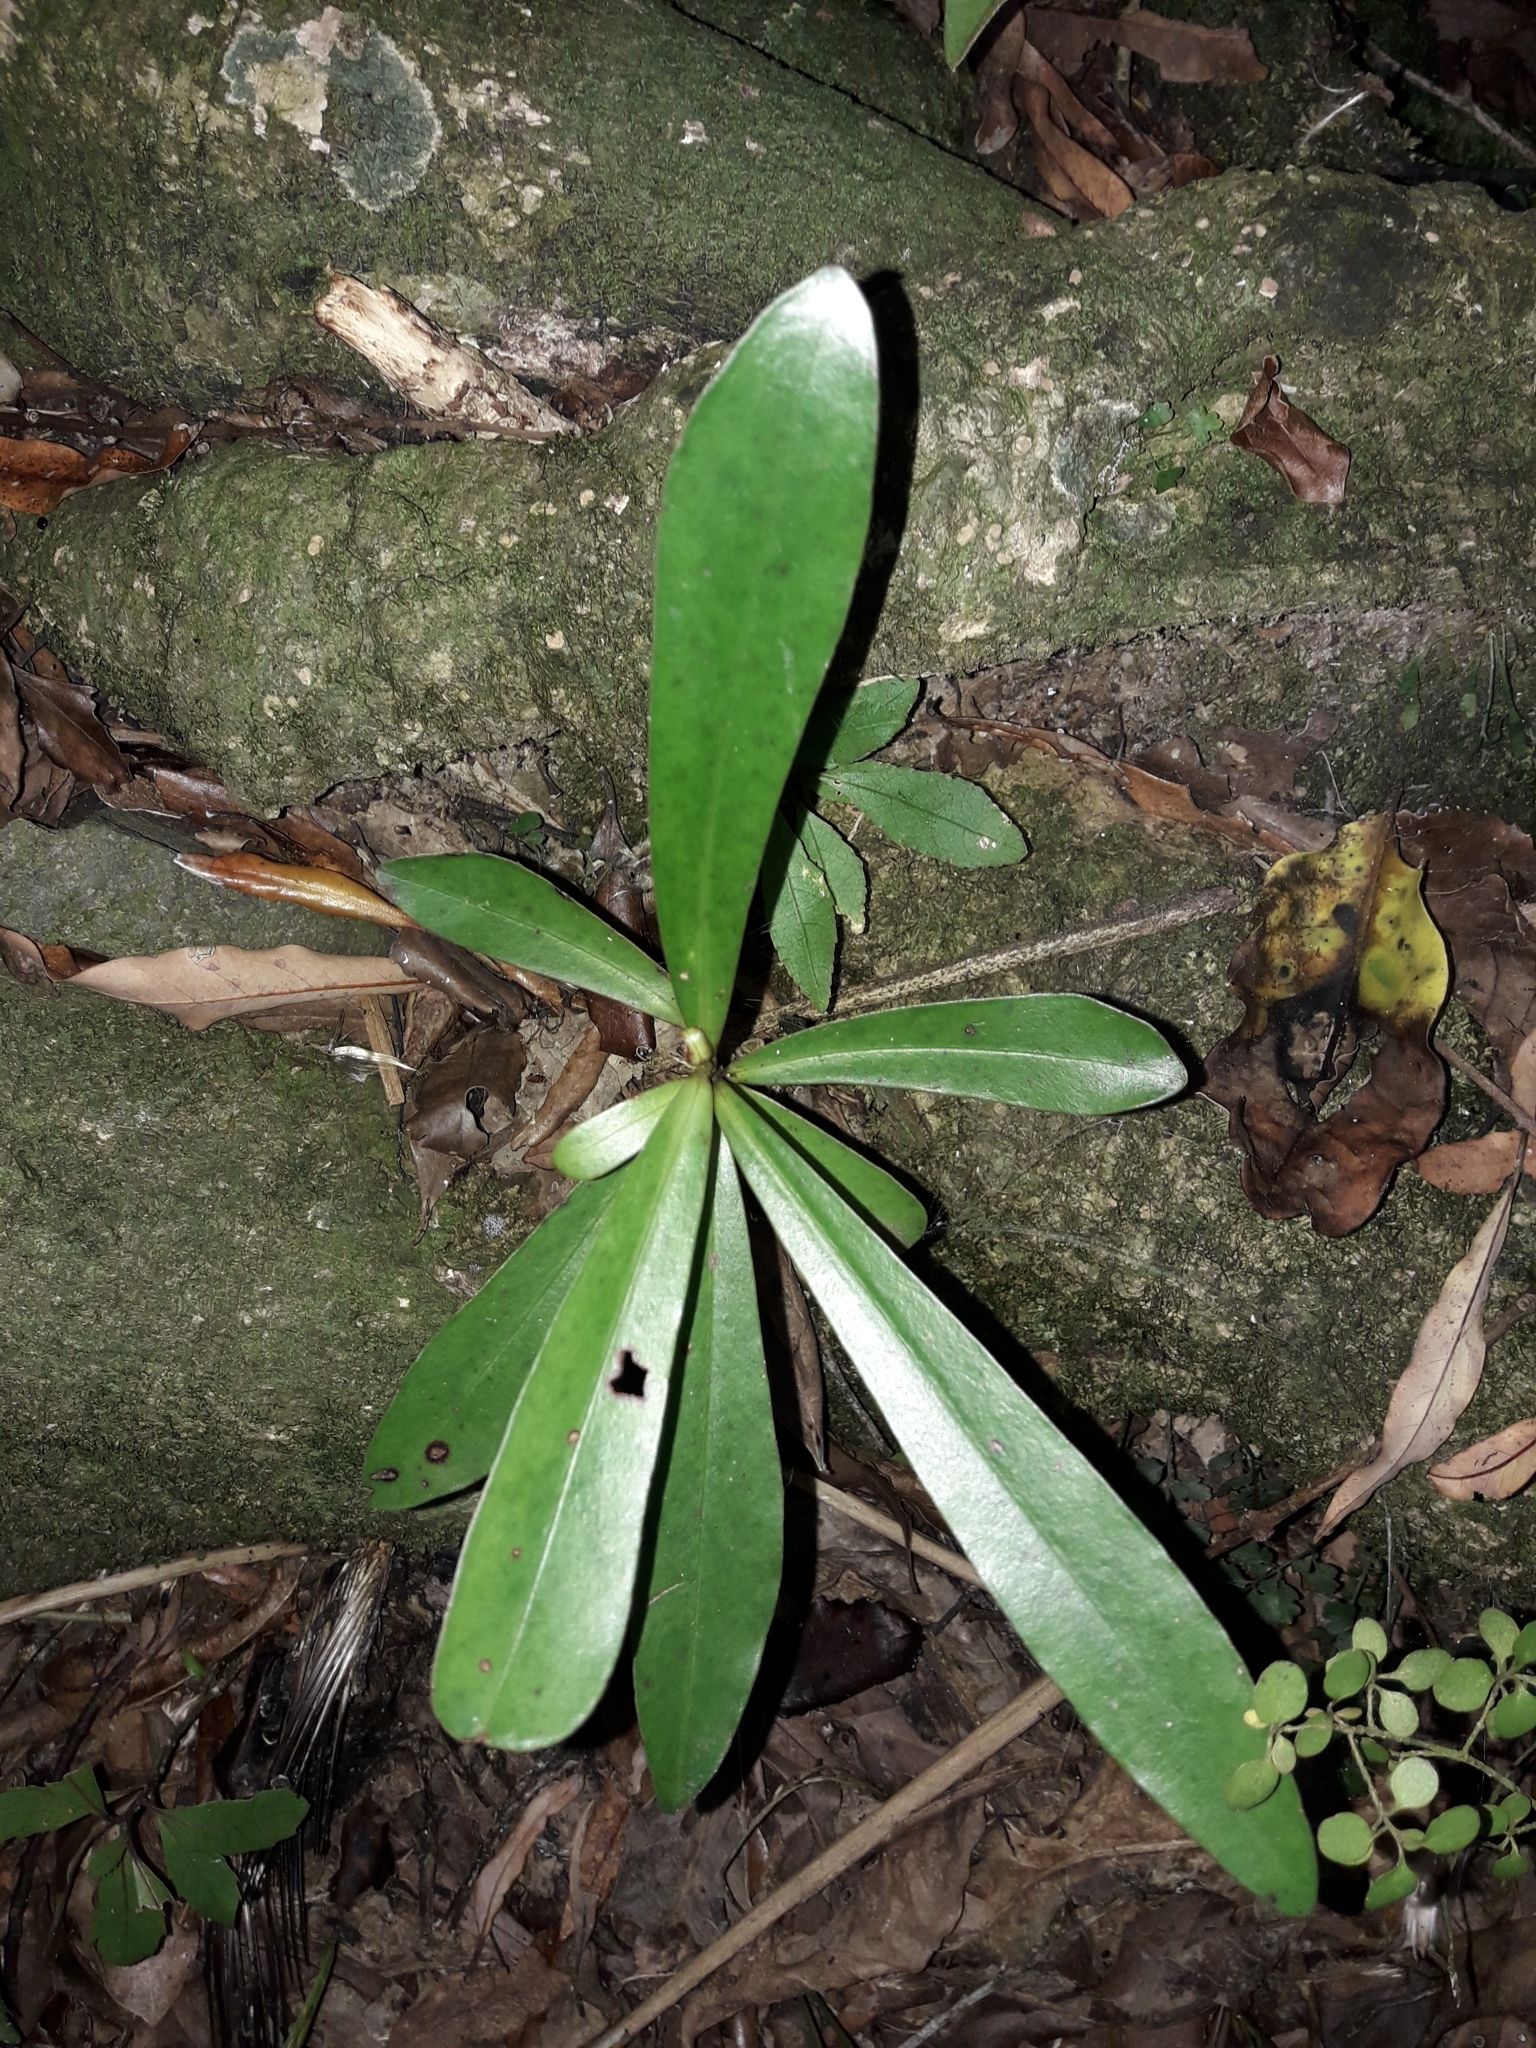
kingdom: Plantae
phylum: Tracheophyta
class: Magnoliopsida
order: Ericales
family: Primulaceae
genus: Myrsine
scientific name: Myrsine salicina
